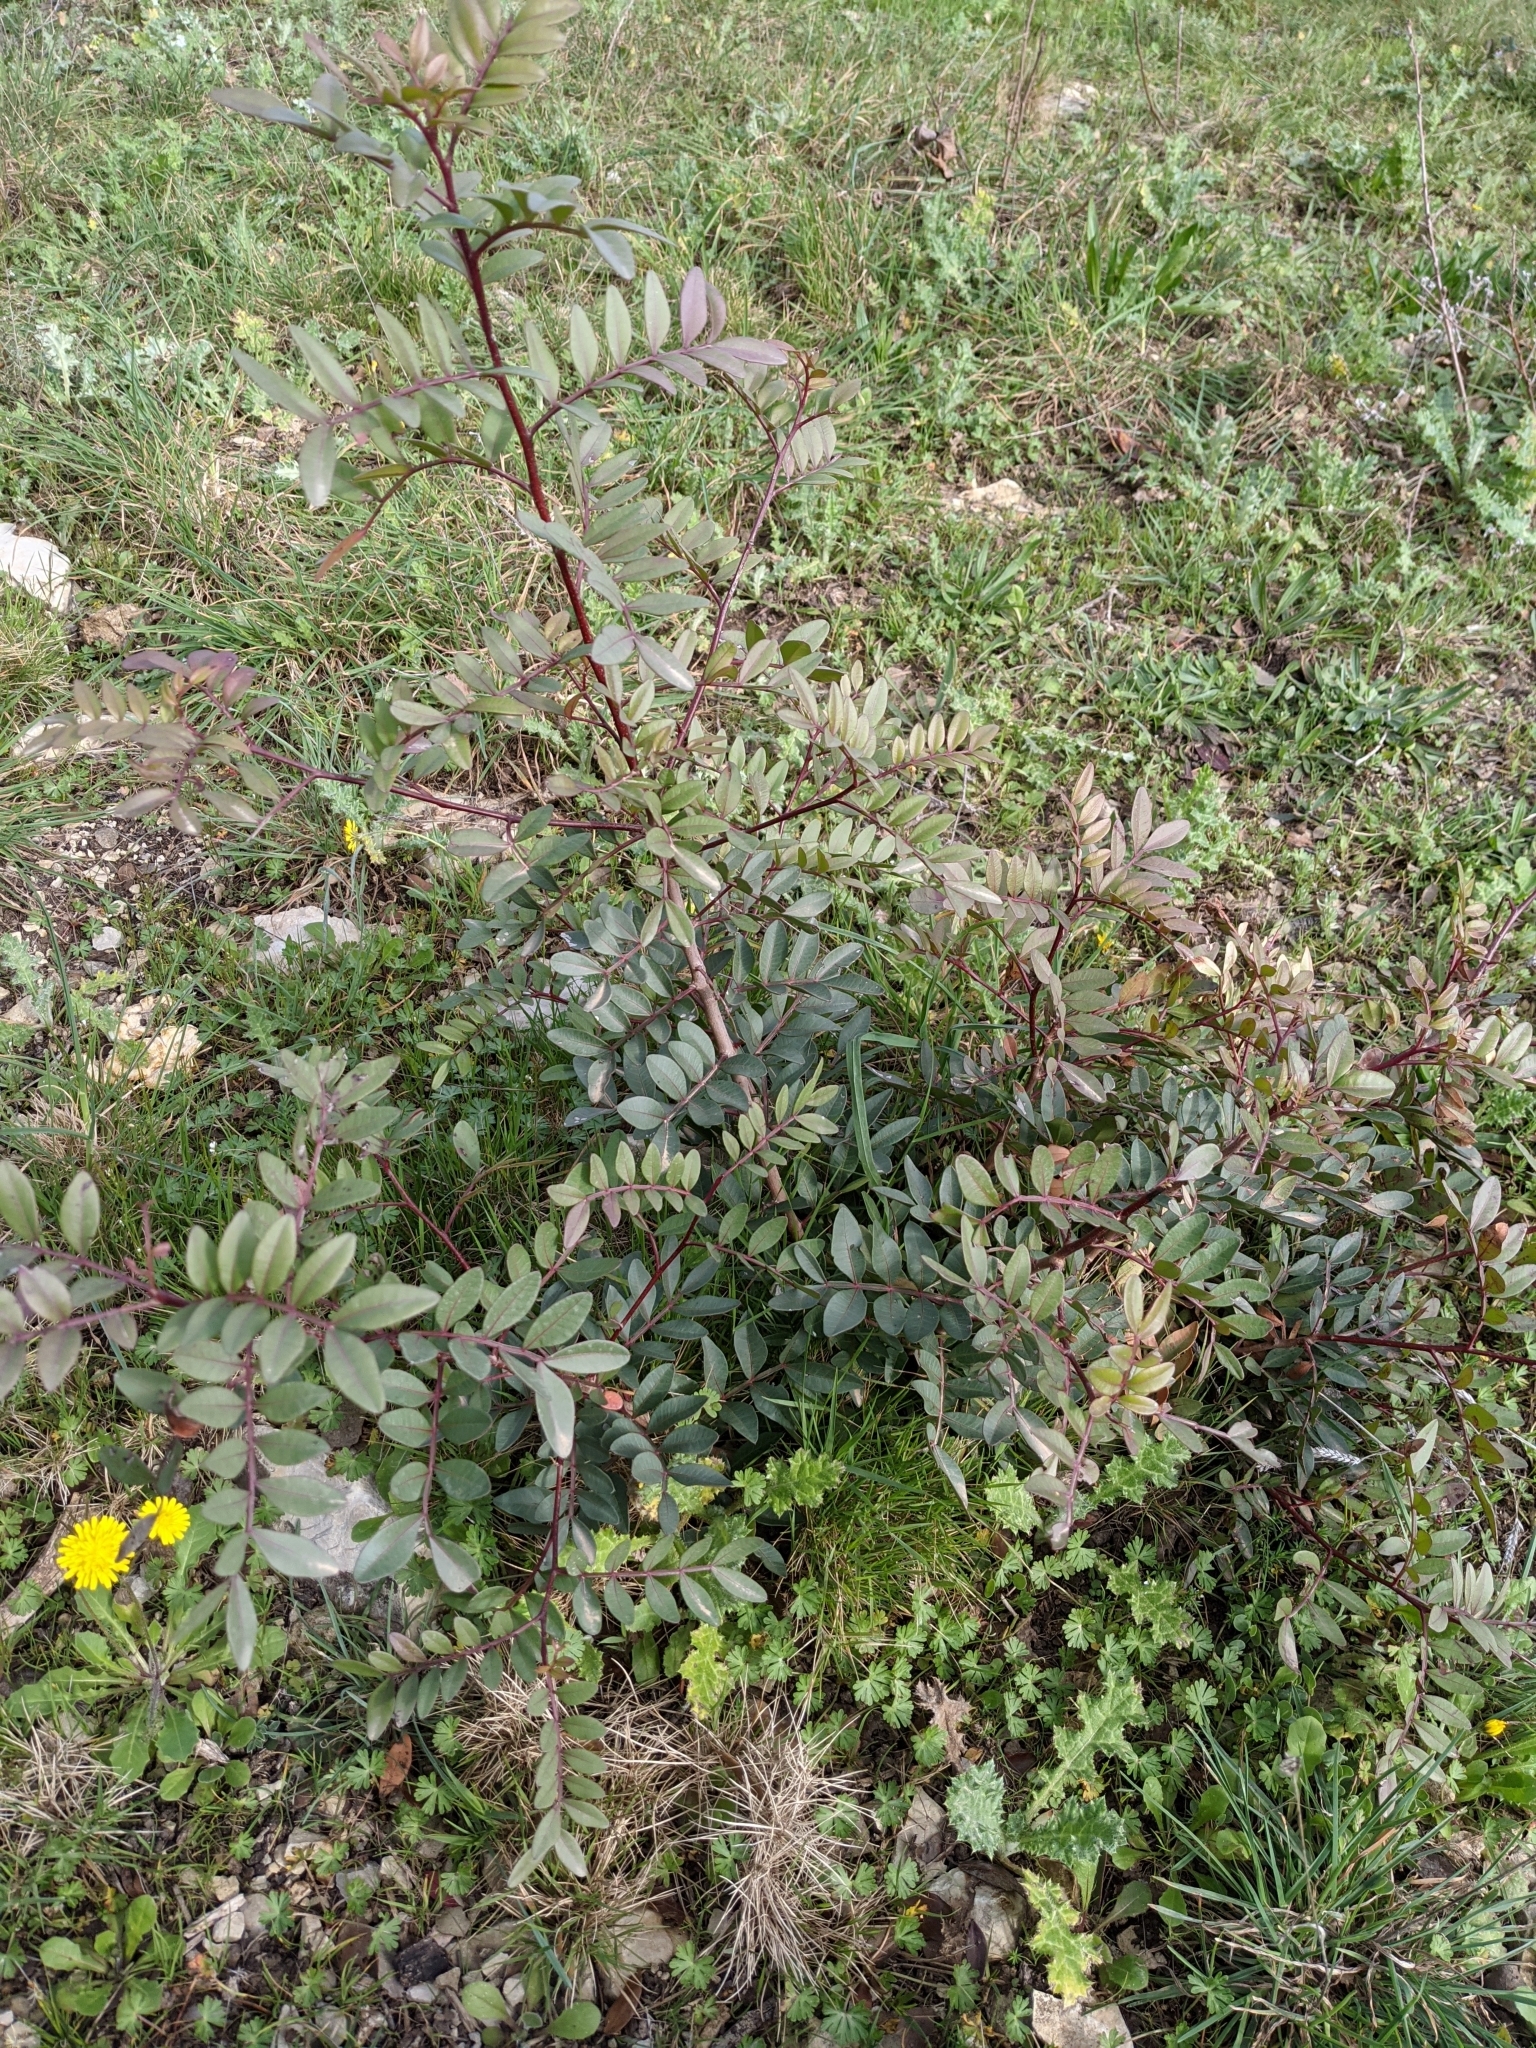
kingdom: Plantae
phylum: Tracheophyta
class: Magnoliopsida
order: Sapindales
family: Anacardiaceae
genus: Pistacia
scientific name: Pistacia lentiscus
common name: Lentisk
